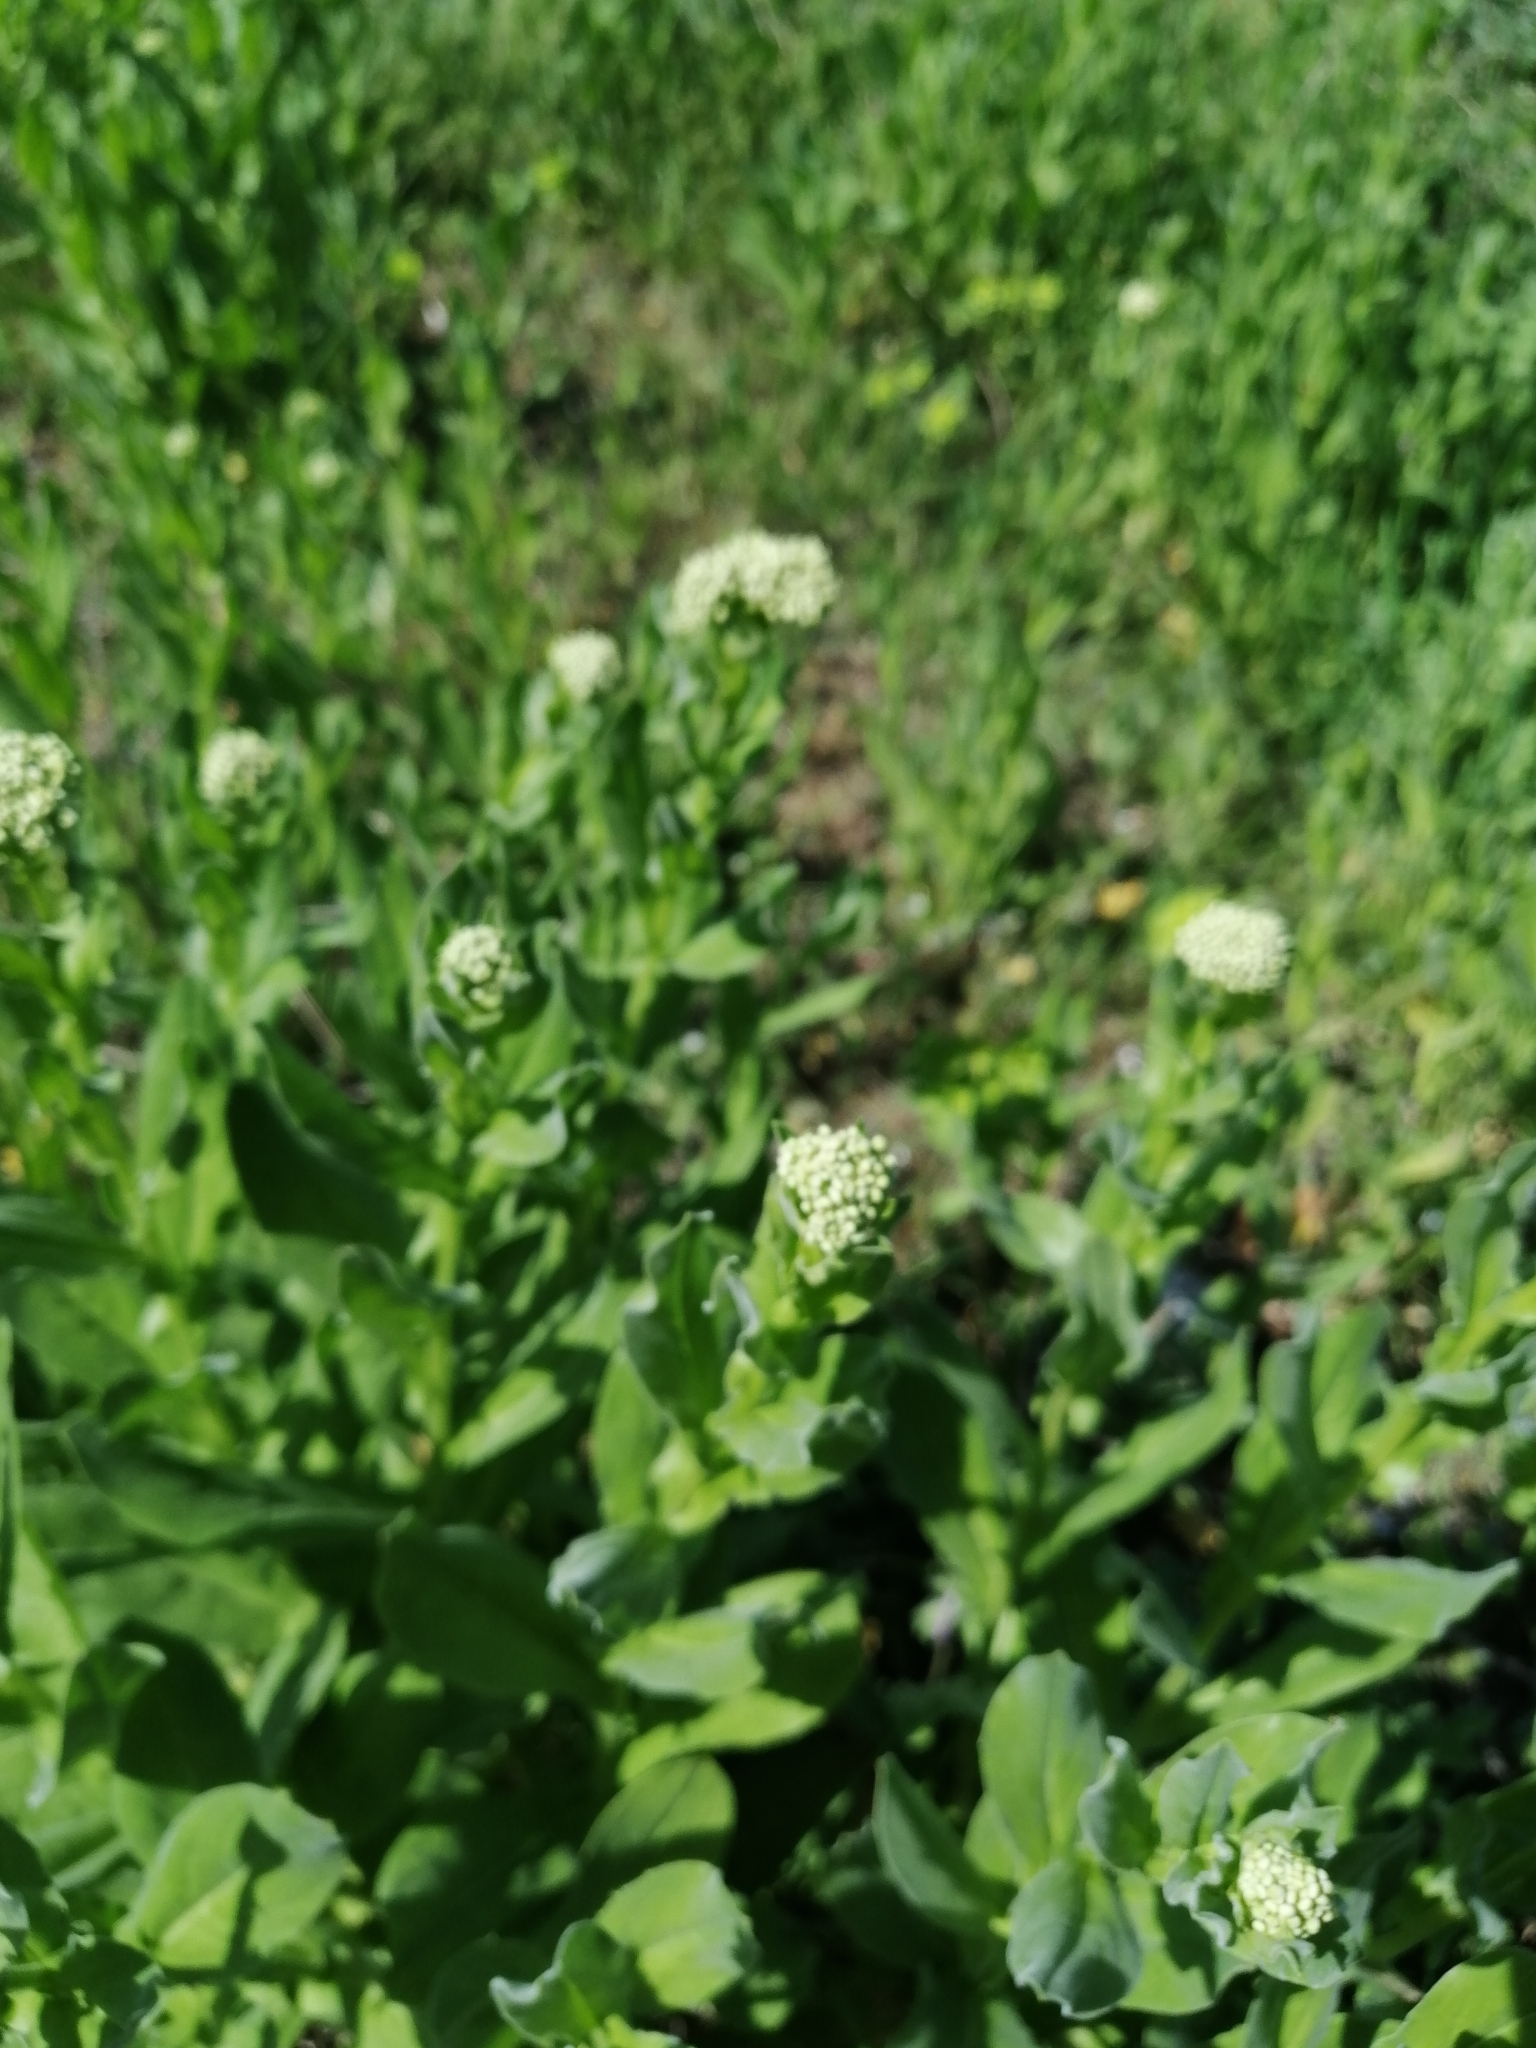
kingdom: Plantae
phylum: Tracheophyta
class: Magnoliopsida
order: Brassicales
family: Brassicaceae
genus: Lepidium
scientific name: Lepidium draba
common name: Hoary cress
